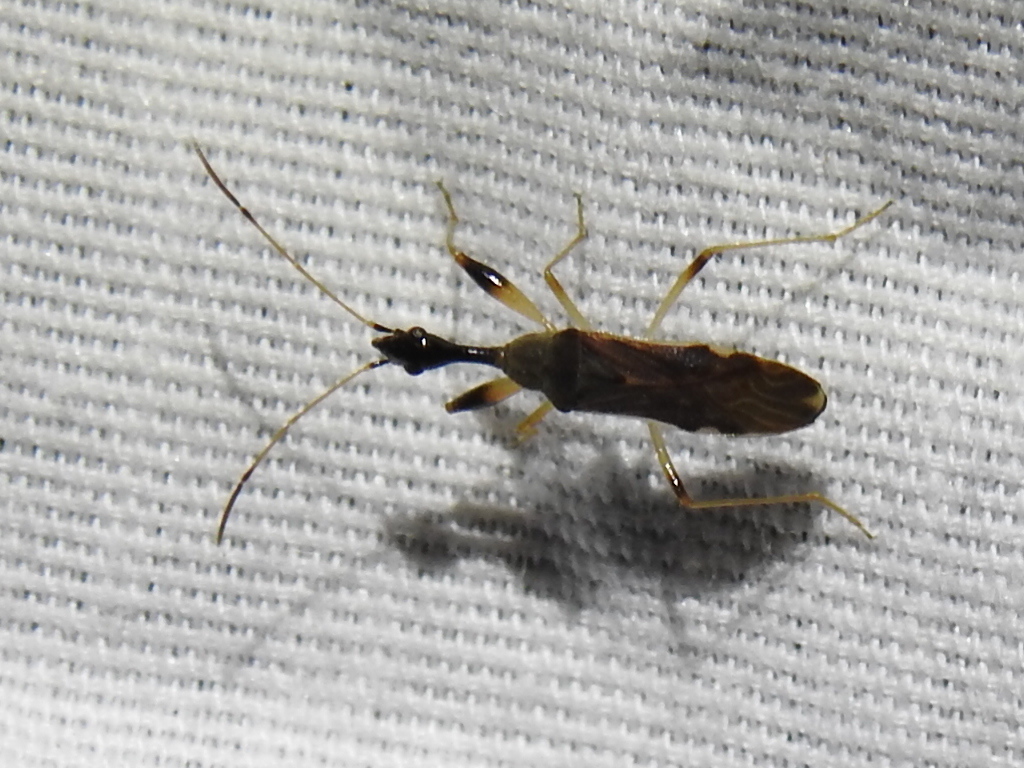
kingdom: Animalia
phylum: Arthropoda
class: Insecta
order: Hemiptera
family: Rhyparochromidae
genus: Myodocha
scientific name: Myodocha serripes
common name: Long-necked seed bug
